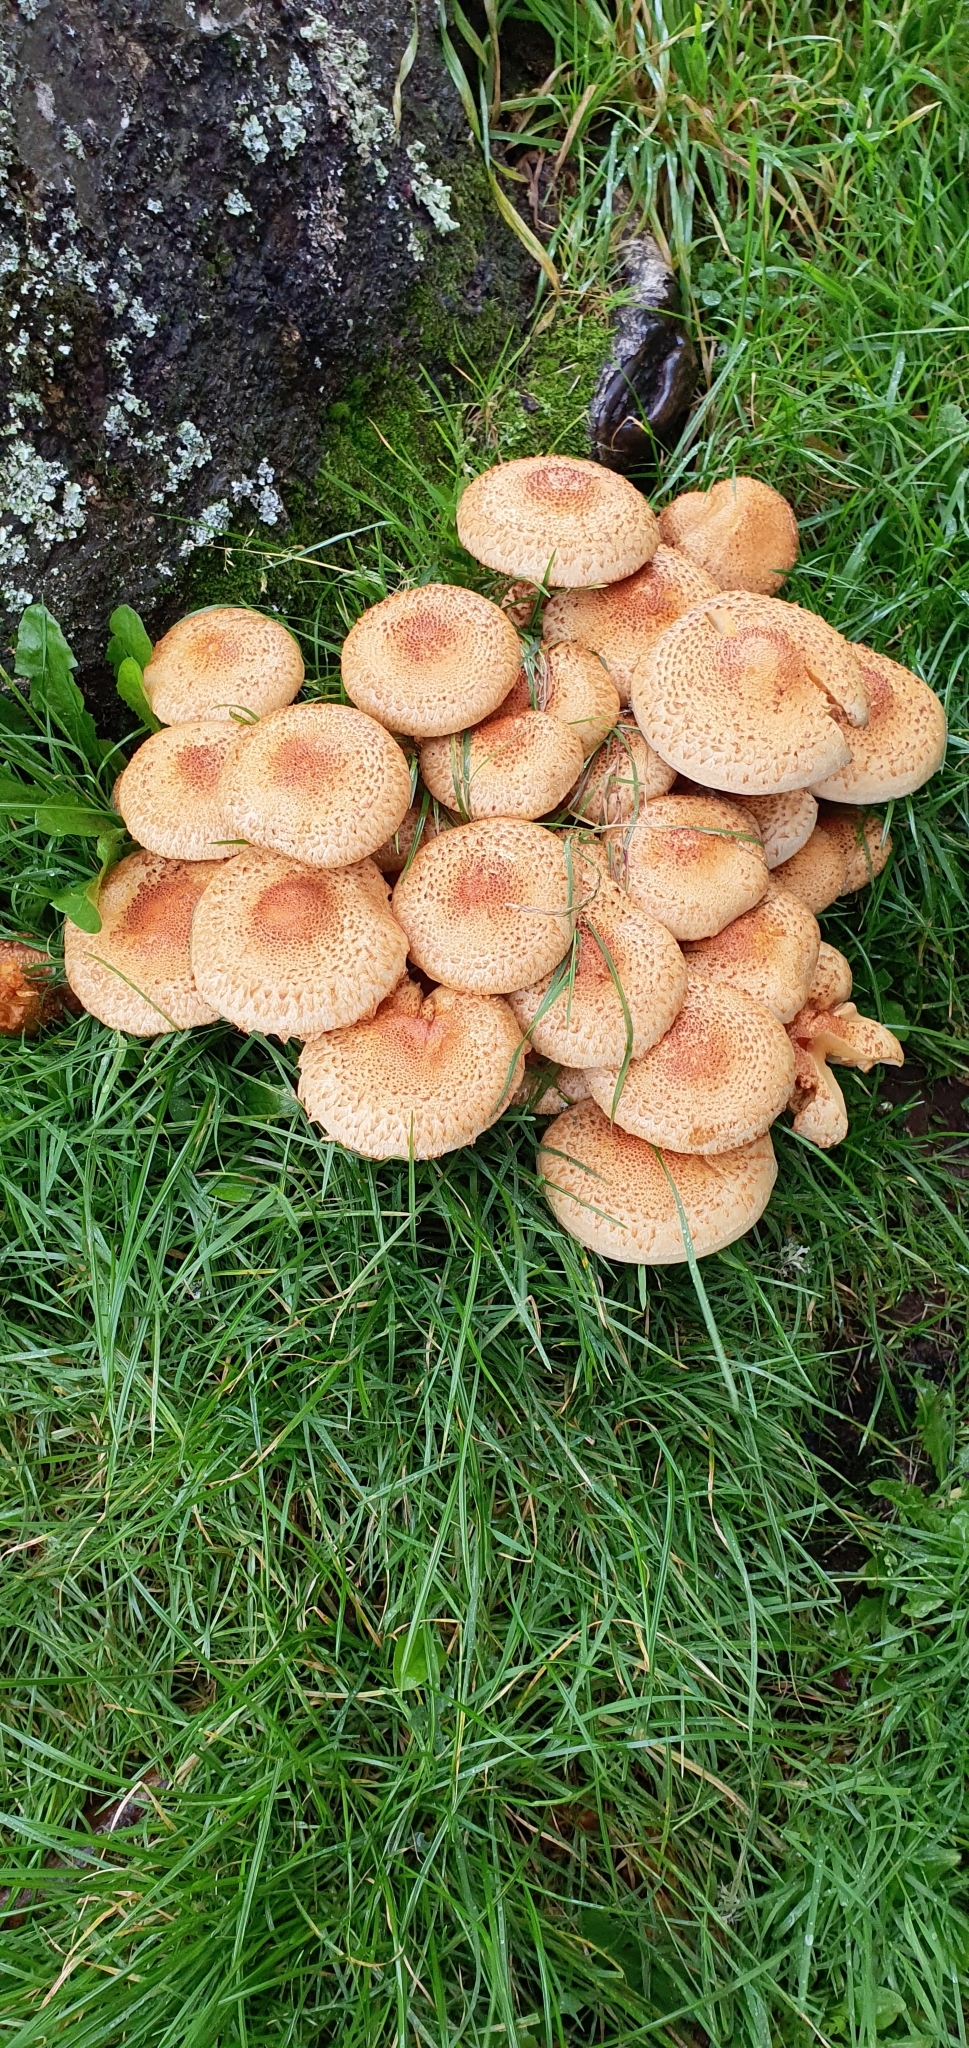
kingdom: Fungi
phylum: Basidiomycota
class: Agaricomycetes
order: Agaricales
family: Strophariaceae
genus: Pholiota
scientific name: Pholiota squarrosa
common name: Shaggy pholiota
